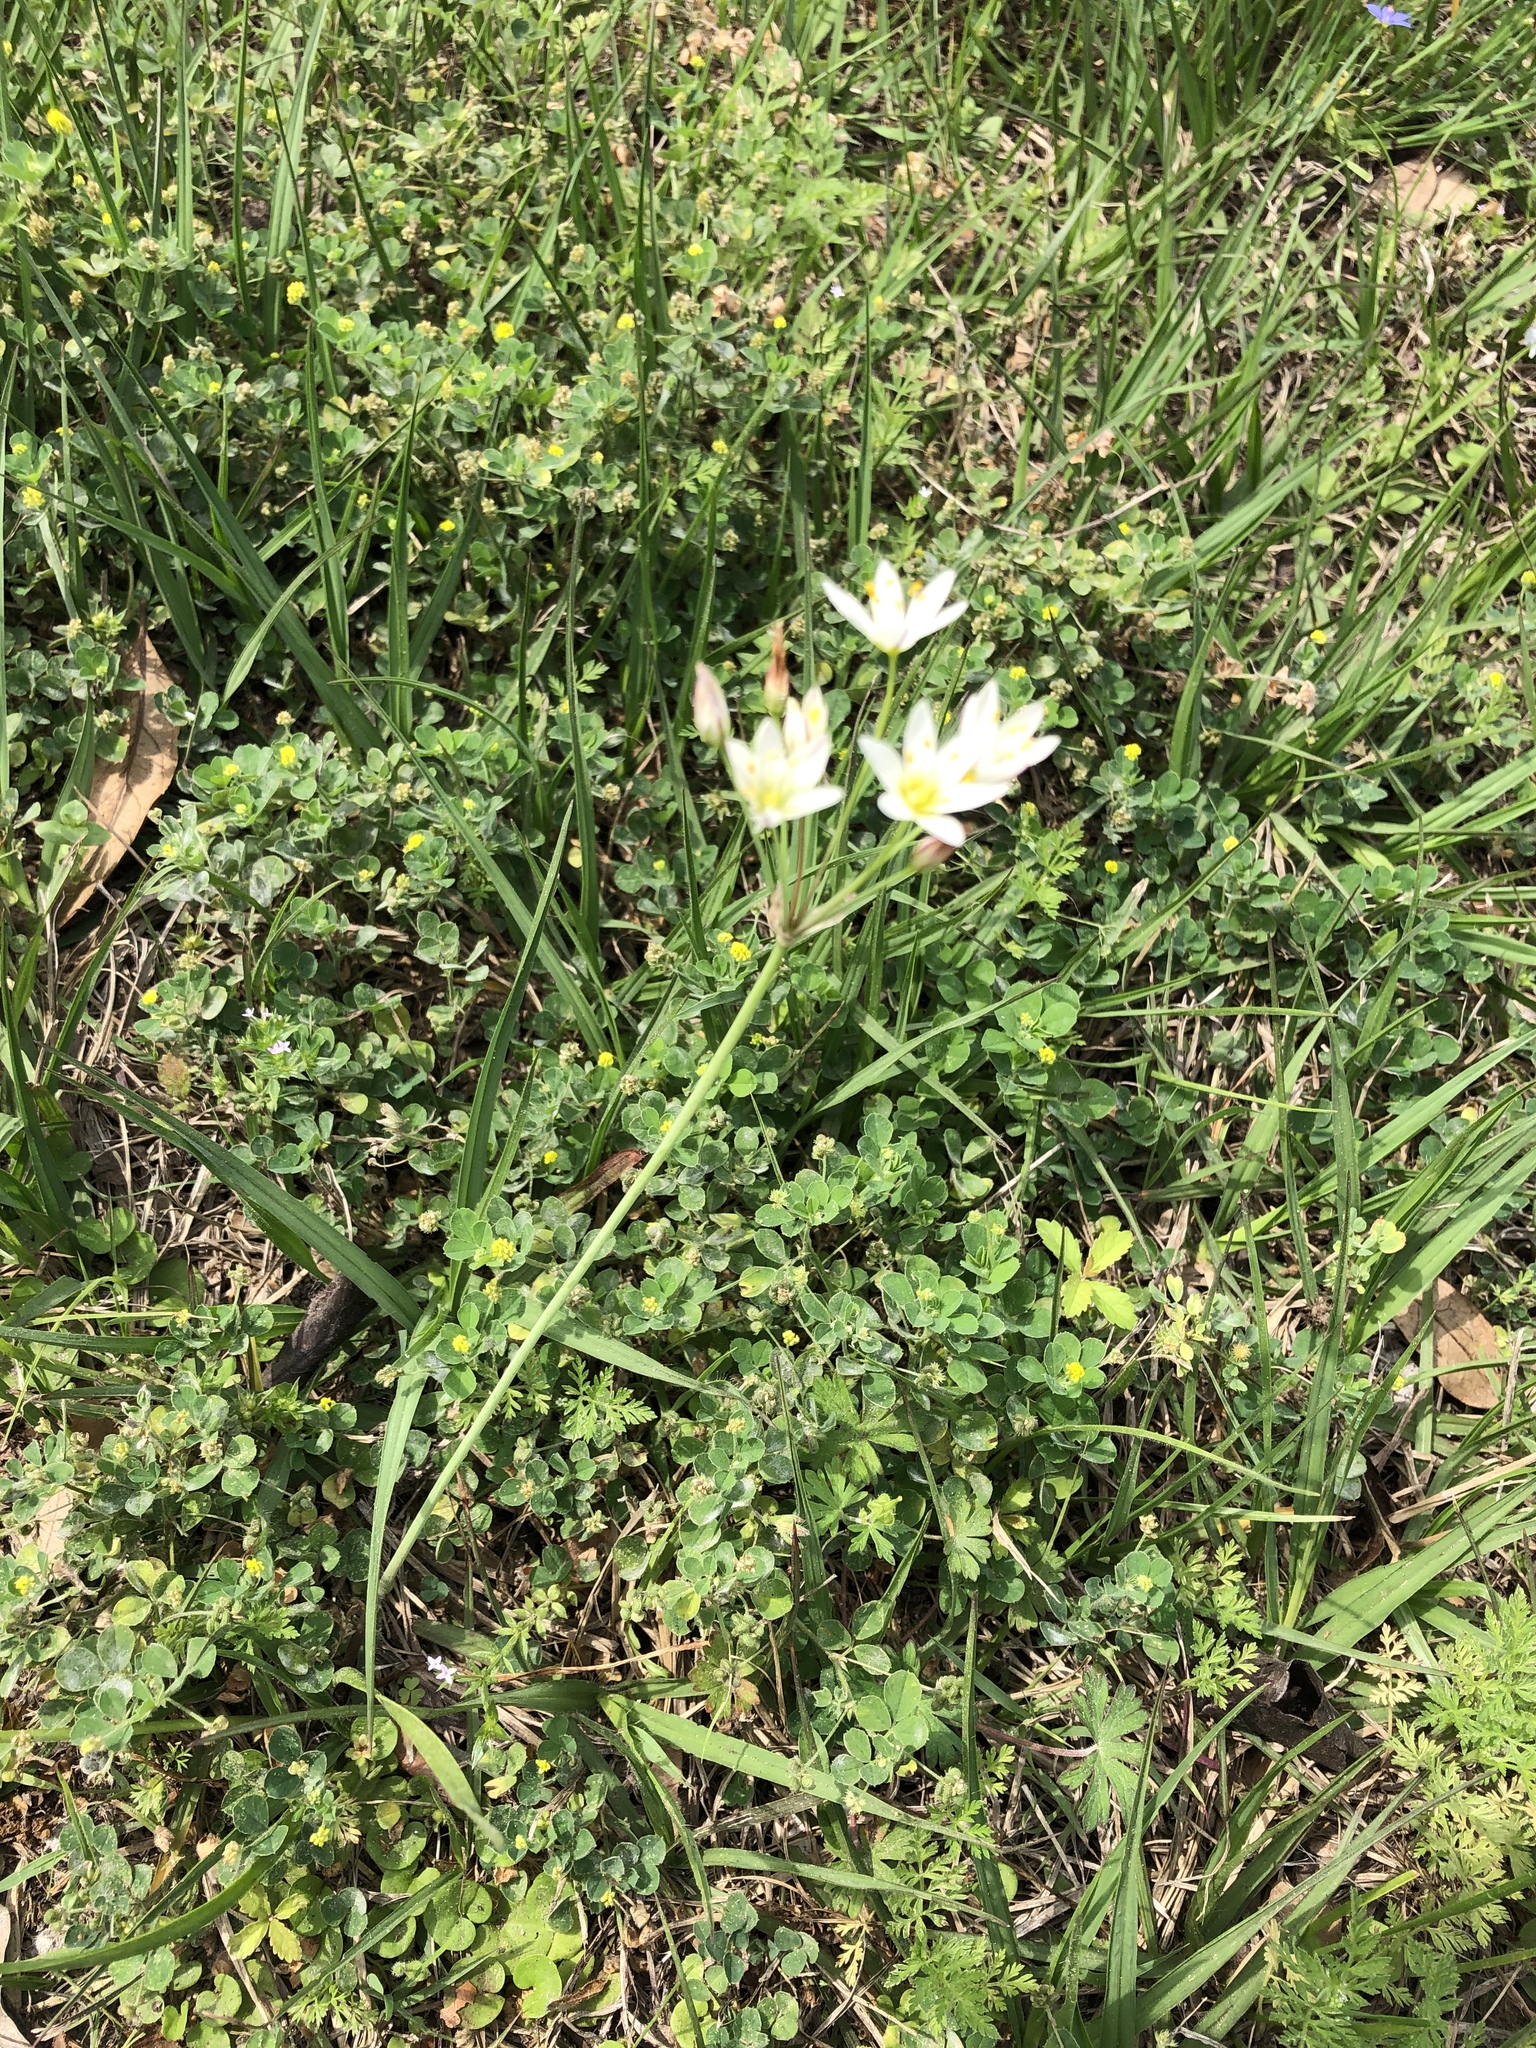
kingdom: Plantae
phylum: Tracheophyta
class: Liliopsida
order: Asparagales
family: Amaryllidaceae
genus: Nothoscordum
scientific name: Nothoscordum bivalve
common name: Crow-poison
